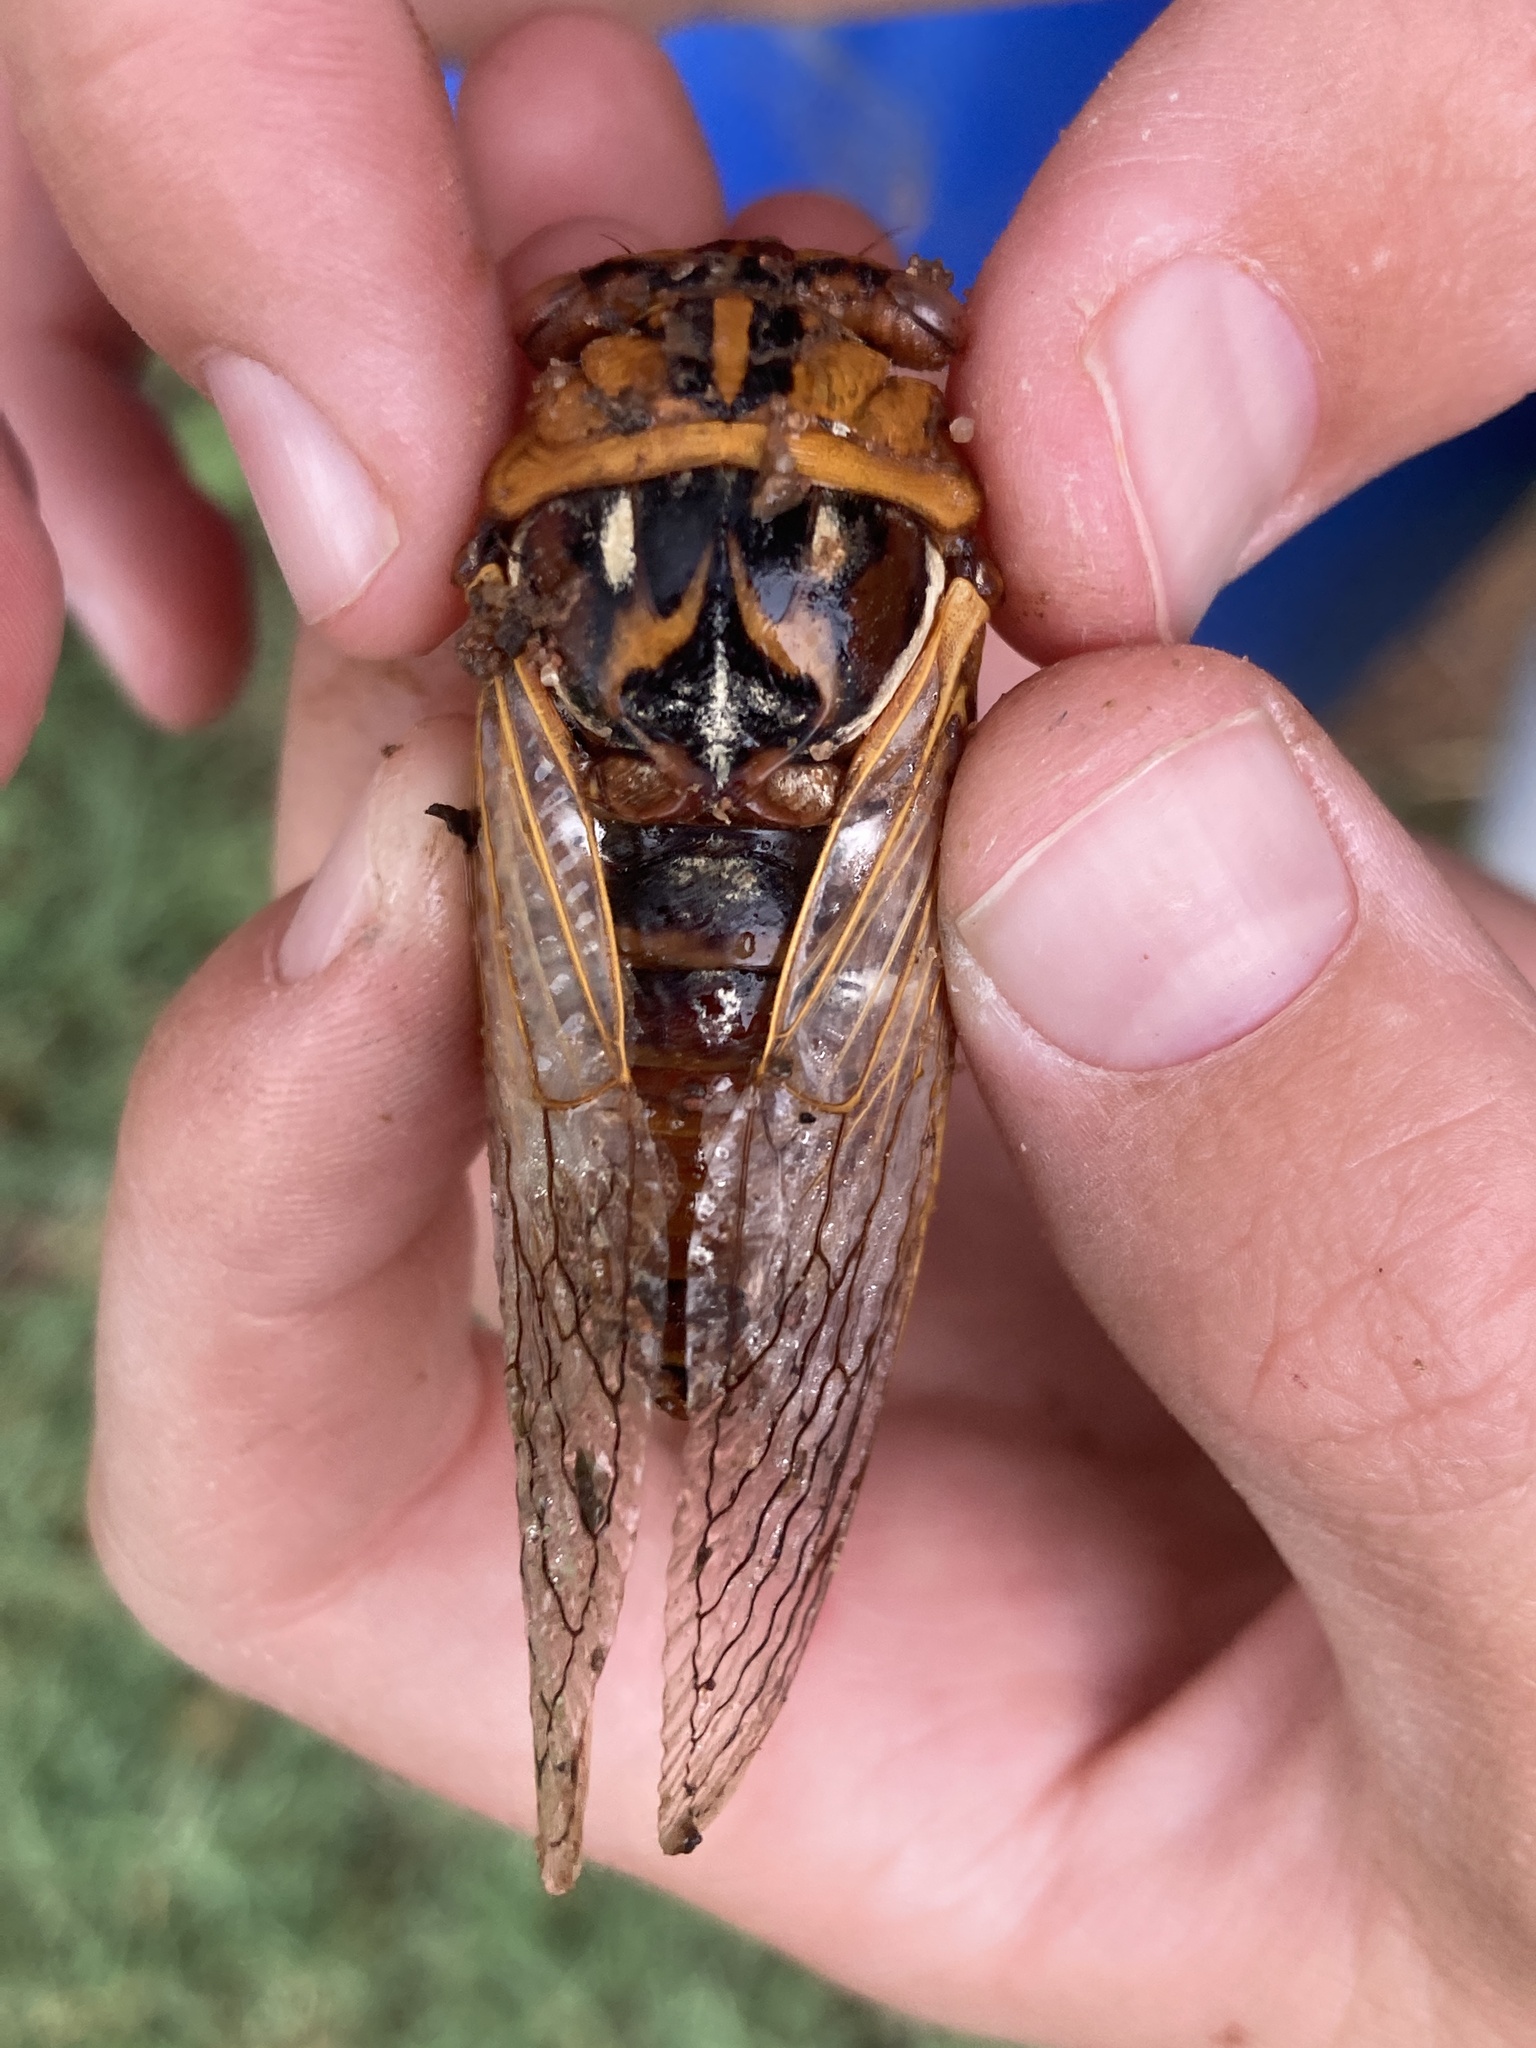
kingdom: Animalia
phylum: Arthropoda
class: Insecta
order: Hemiptera
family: Cicadidae
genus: Megatibicen
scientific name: Megatibicen dorsatus
